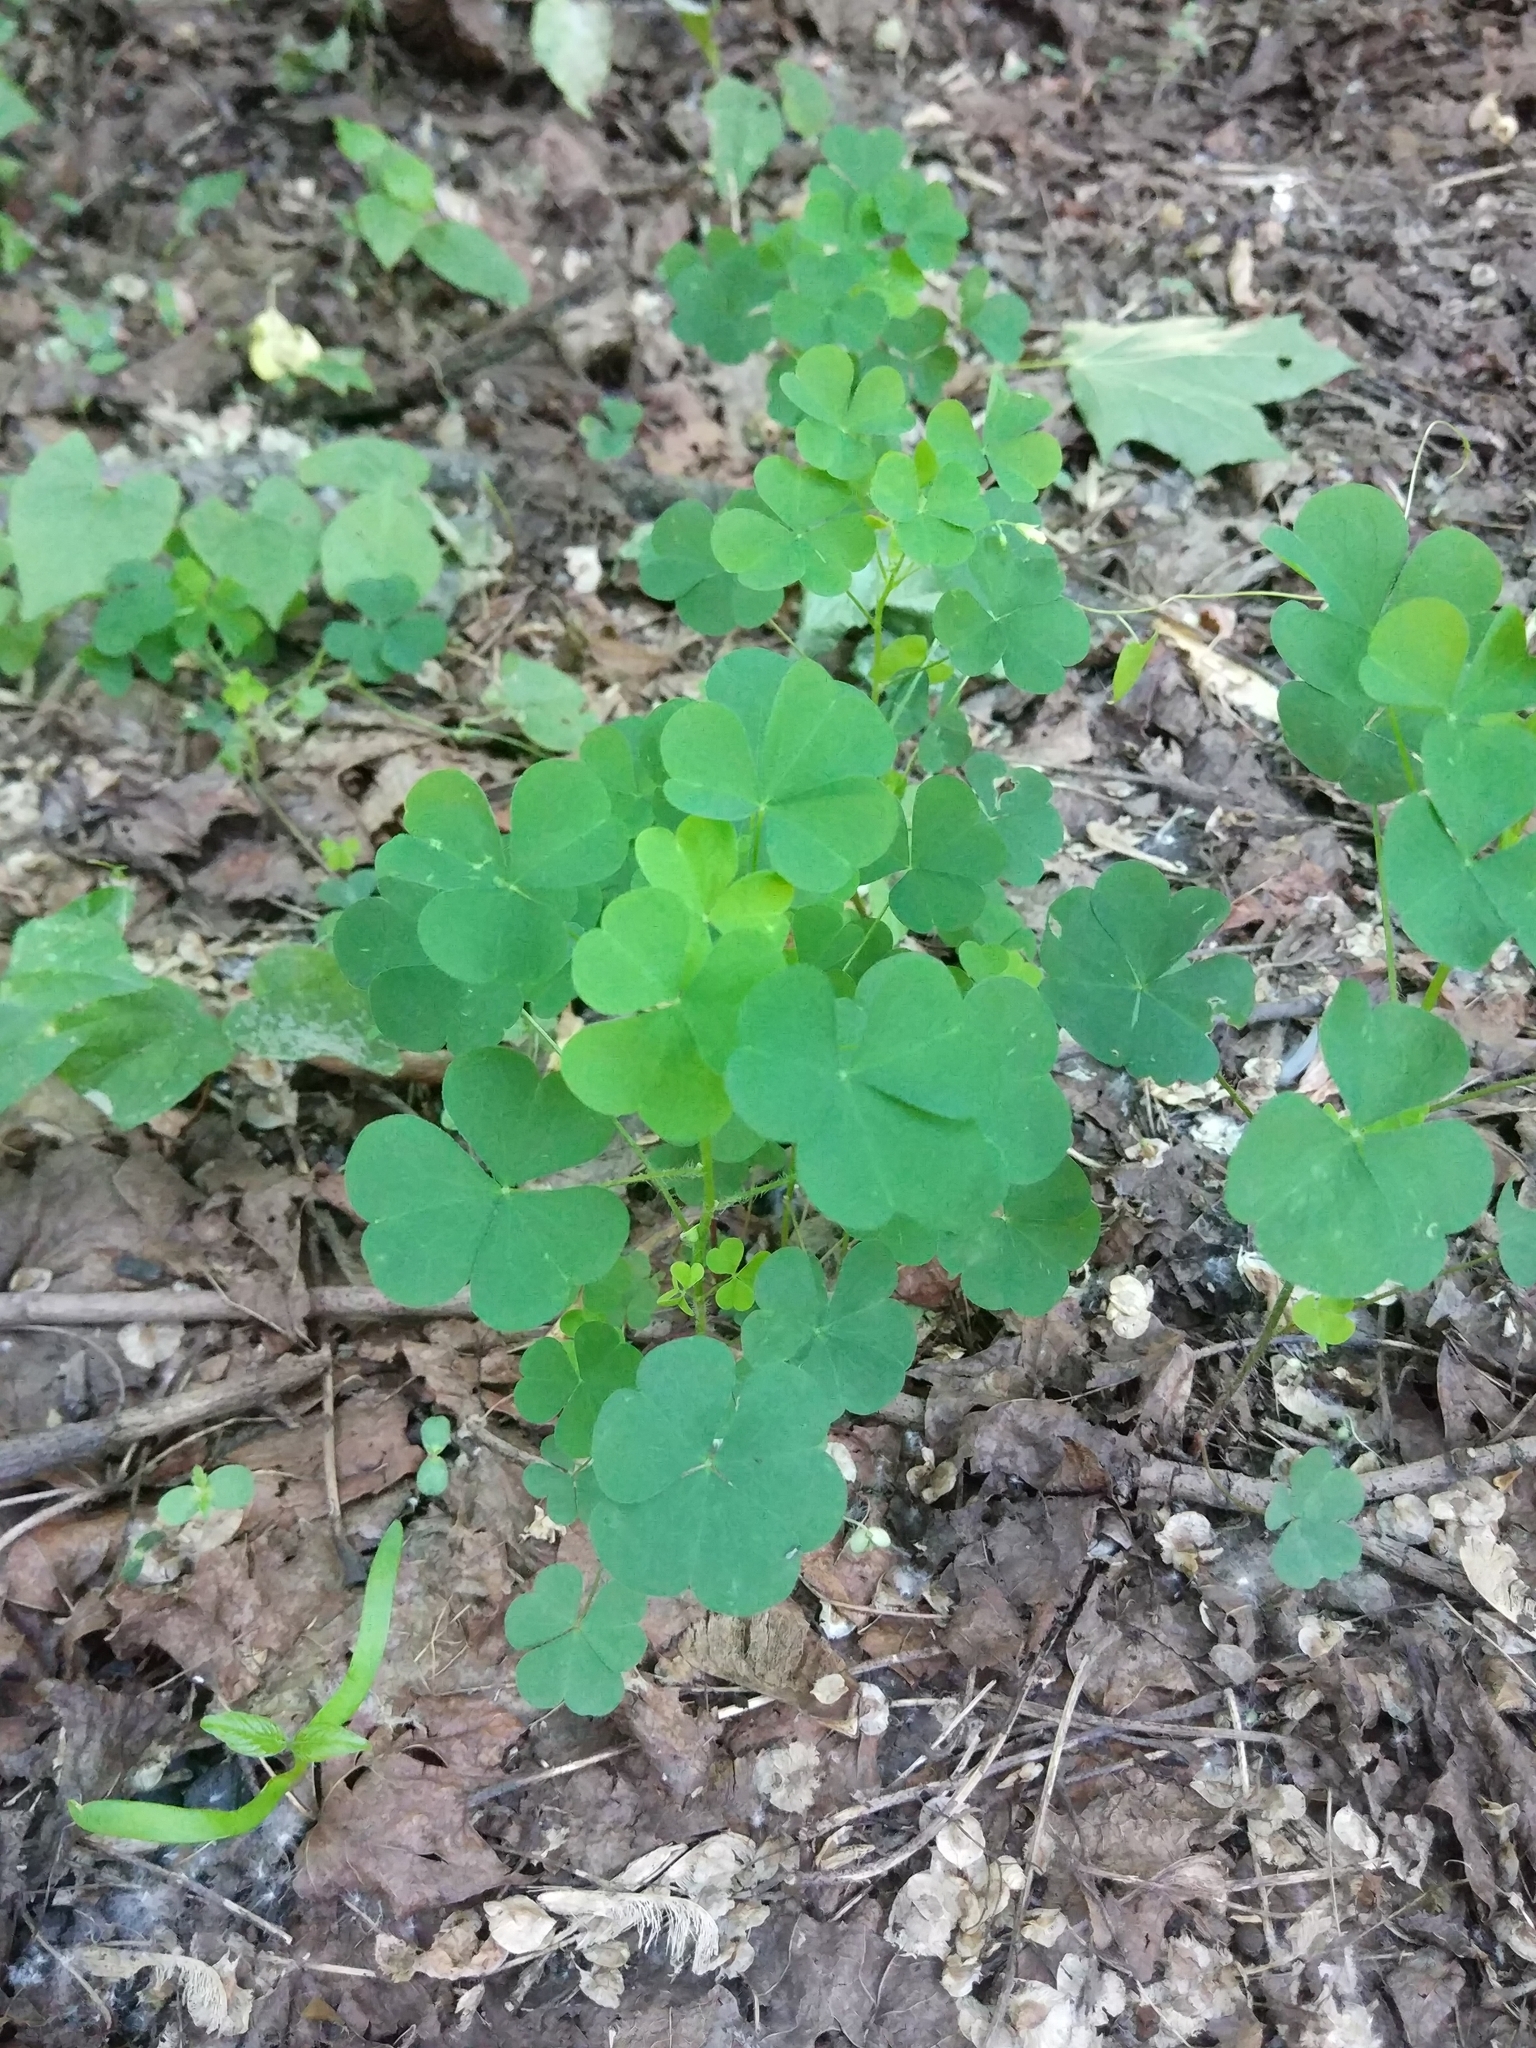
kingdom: Plantae
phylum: Tracheophyta
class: Magnoliopsida
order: Oxalidales
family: Oxalidaceae
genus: Oxalis
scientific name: Oxalis stricta
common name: Upright yellow-sorrel
